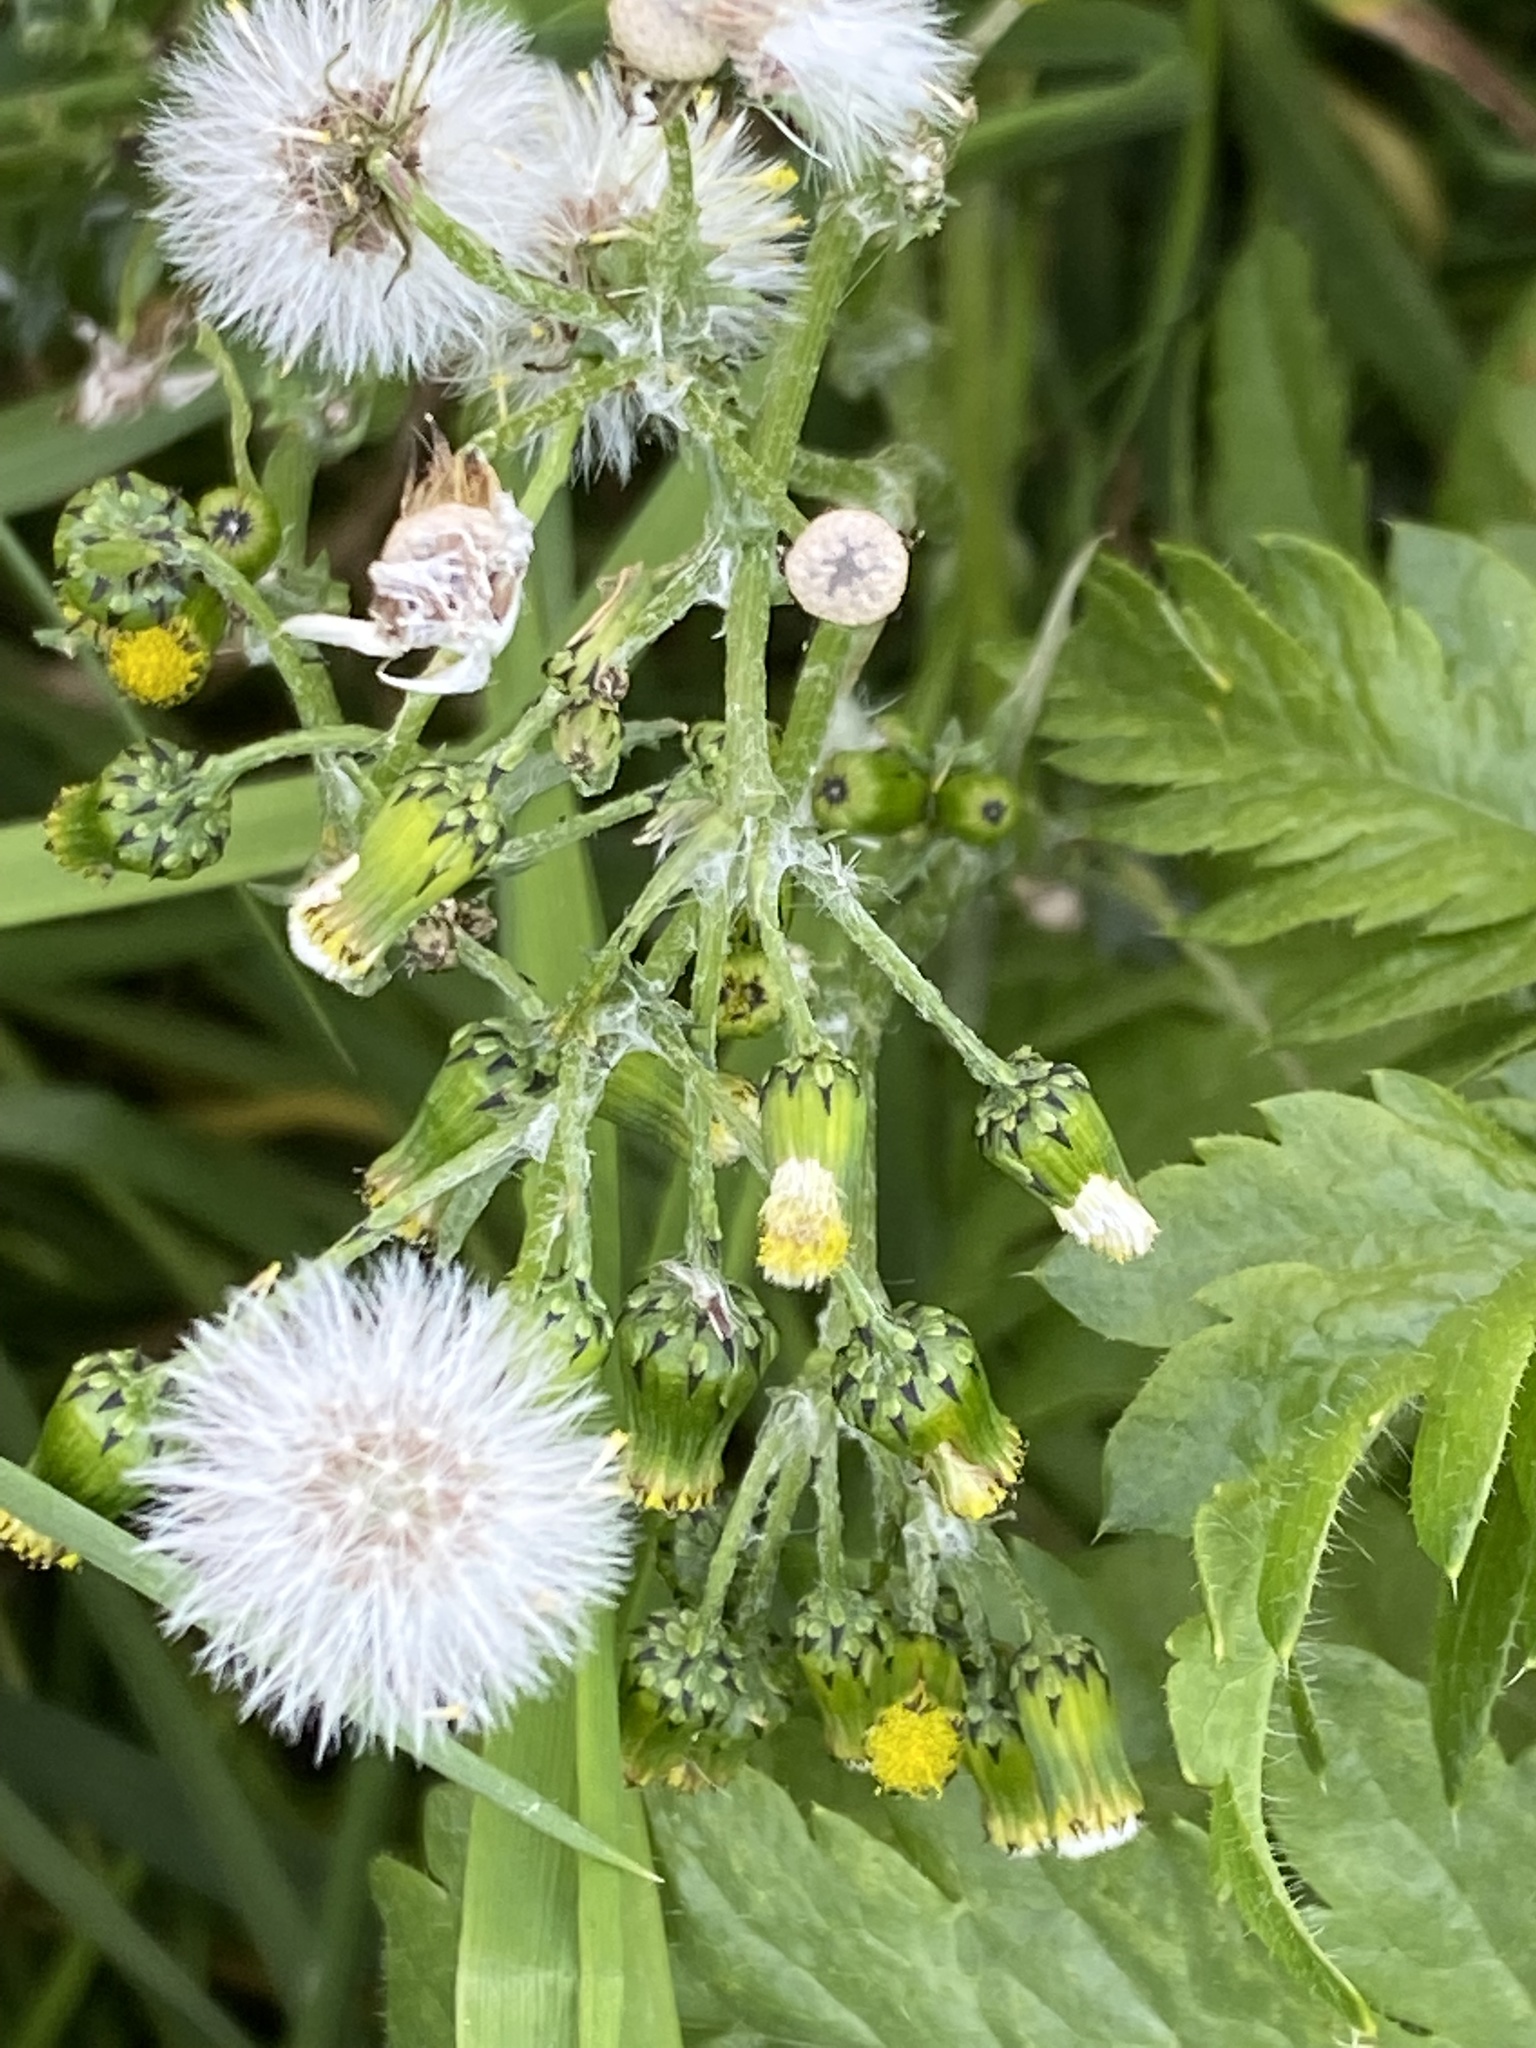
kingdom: Plantae
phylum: Tracheophyta
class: Magnoliopsida
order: Asterales
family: Asteraceae
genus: Senecio
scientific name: Senecio vulgaris
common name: Old-man-in-the-spring
